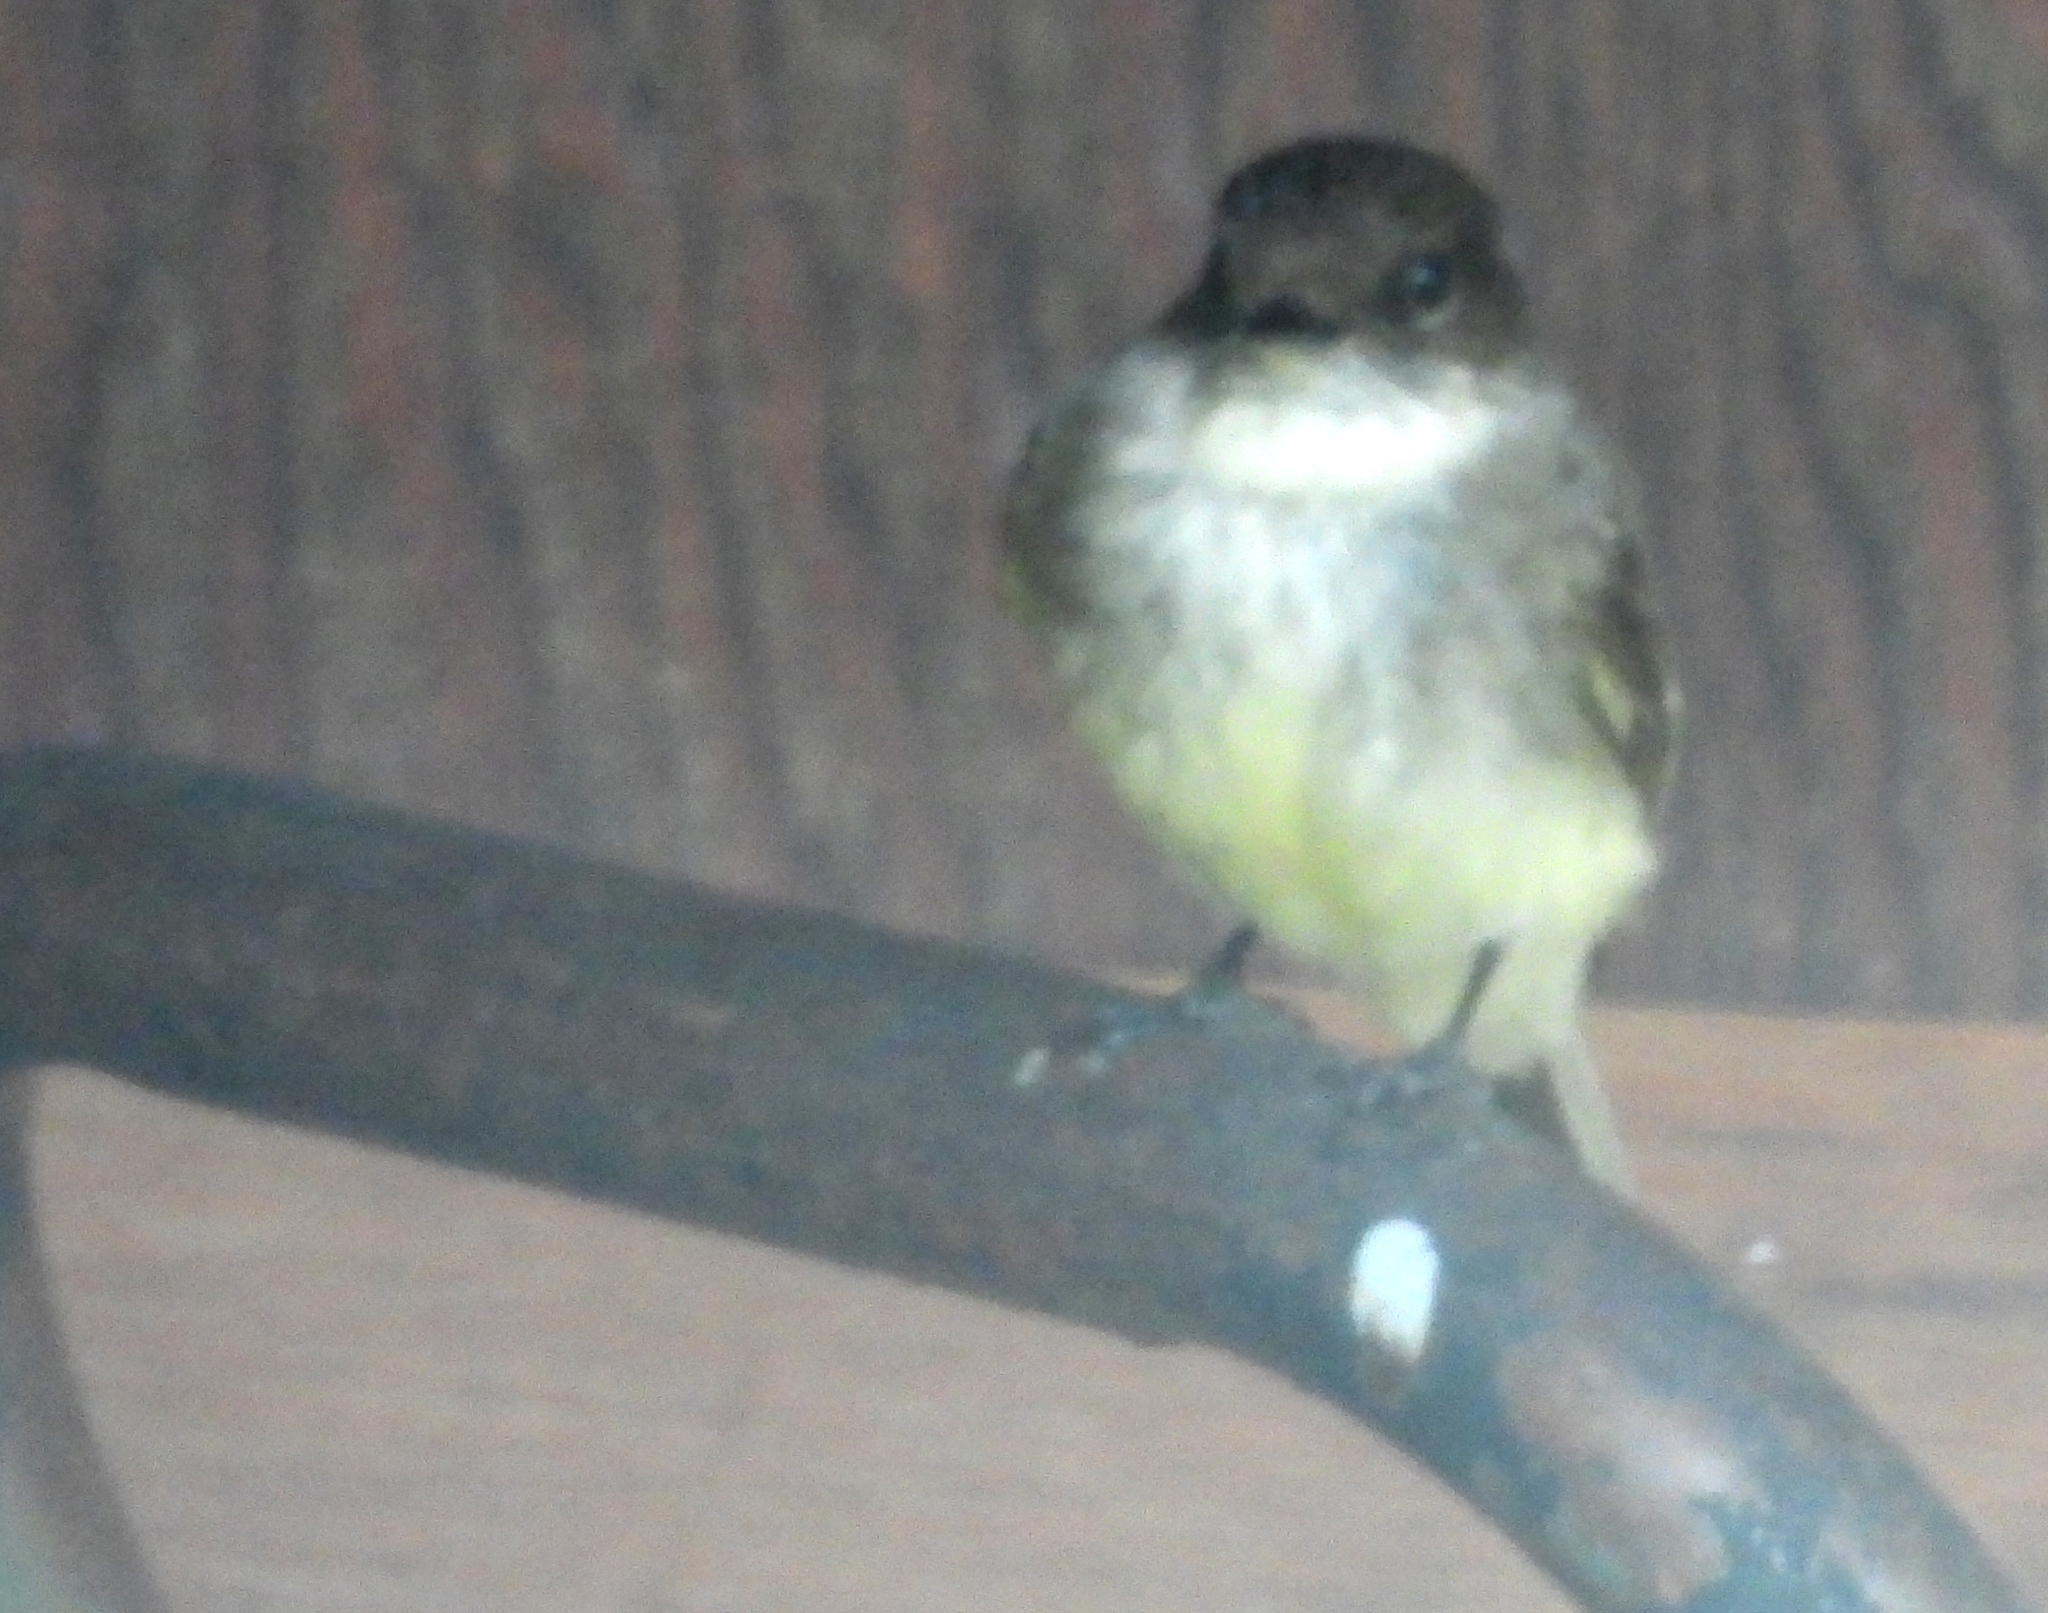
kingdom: Animalia
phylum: Chordata
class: Aves
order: Passeriformes
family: Tyrannidae
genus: Sayornis
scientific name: Sayornis phoebe
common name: Eastern phoebe
